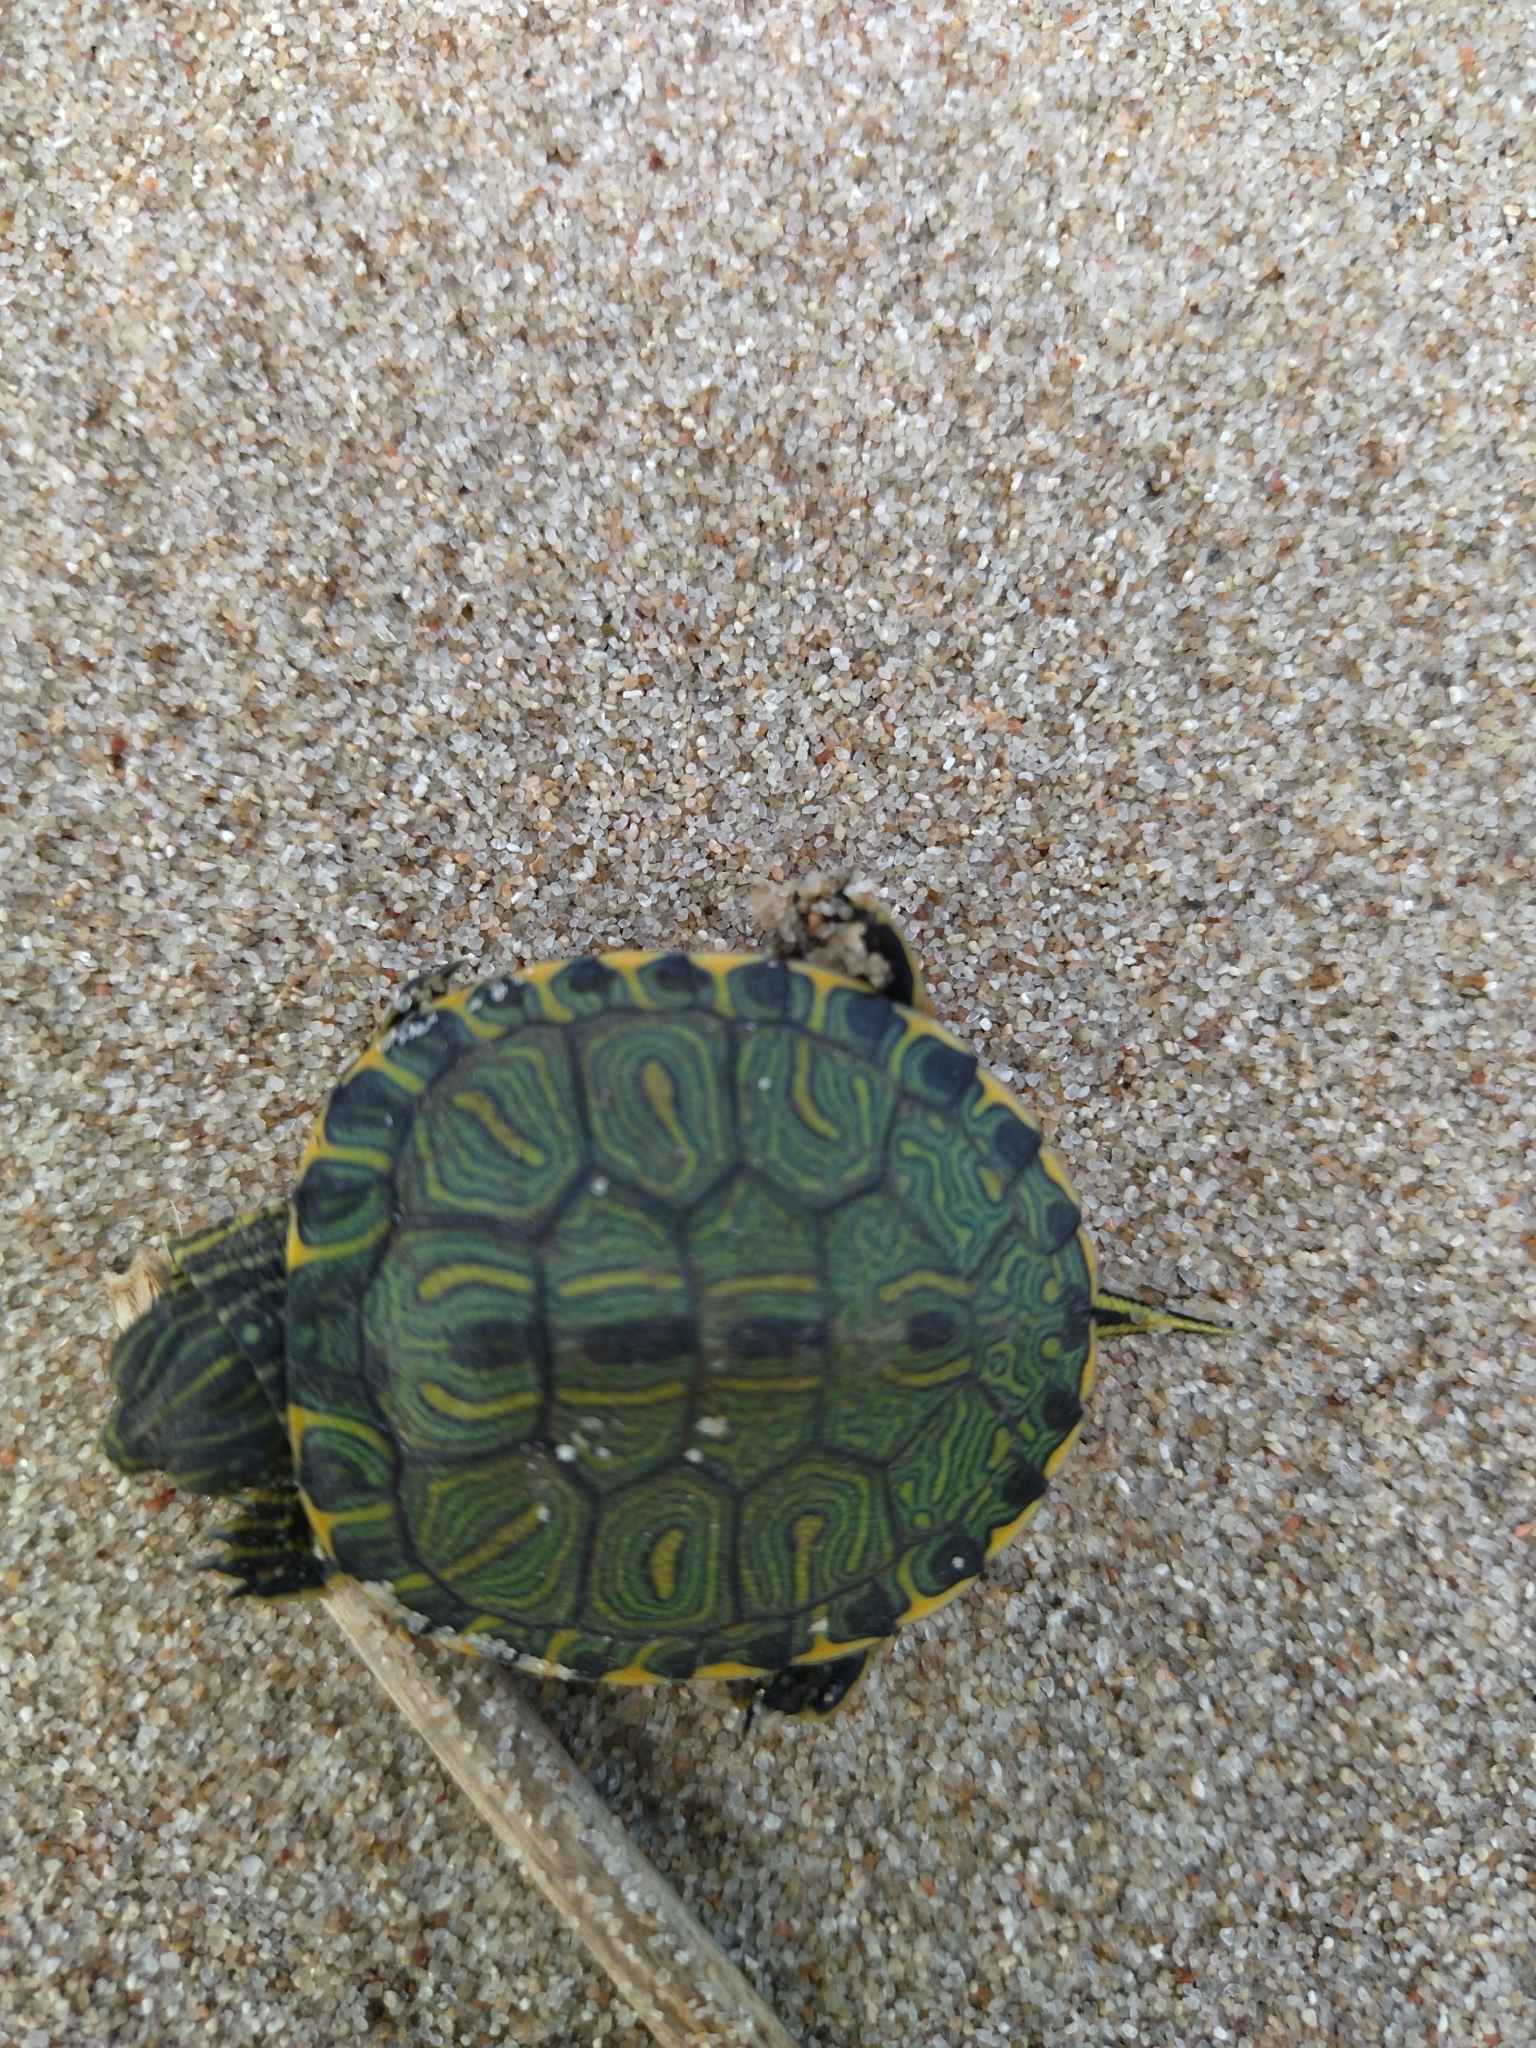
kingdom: Animalia
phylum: Chordata
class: Testudines
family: Emydidae
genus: Trachemys
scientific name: Trachemys dorbigni
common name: Black-bellied slider
